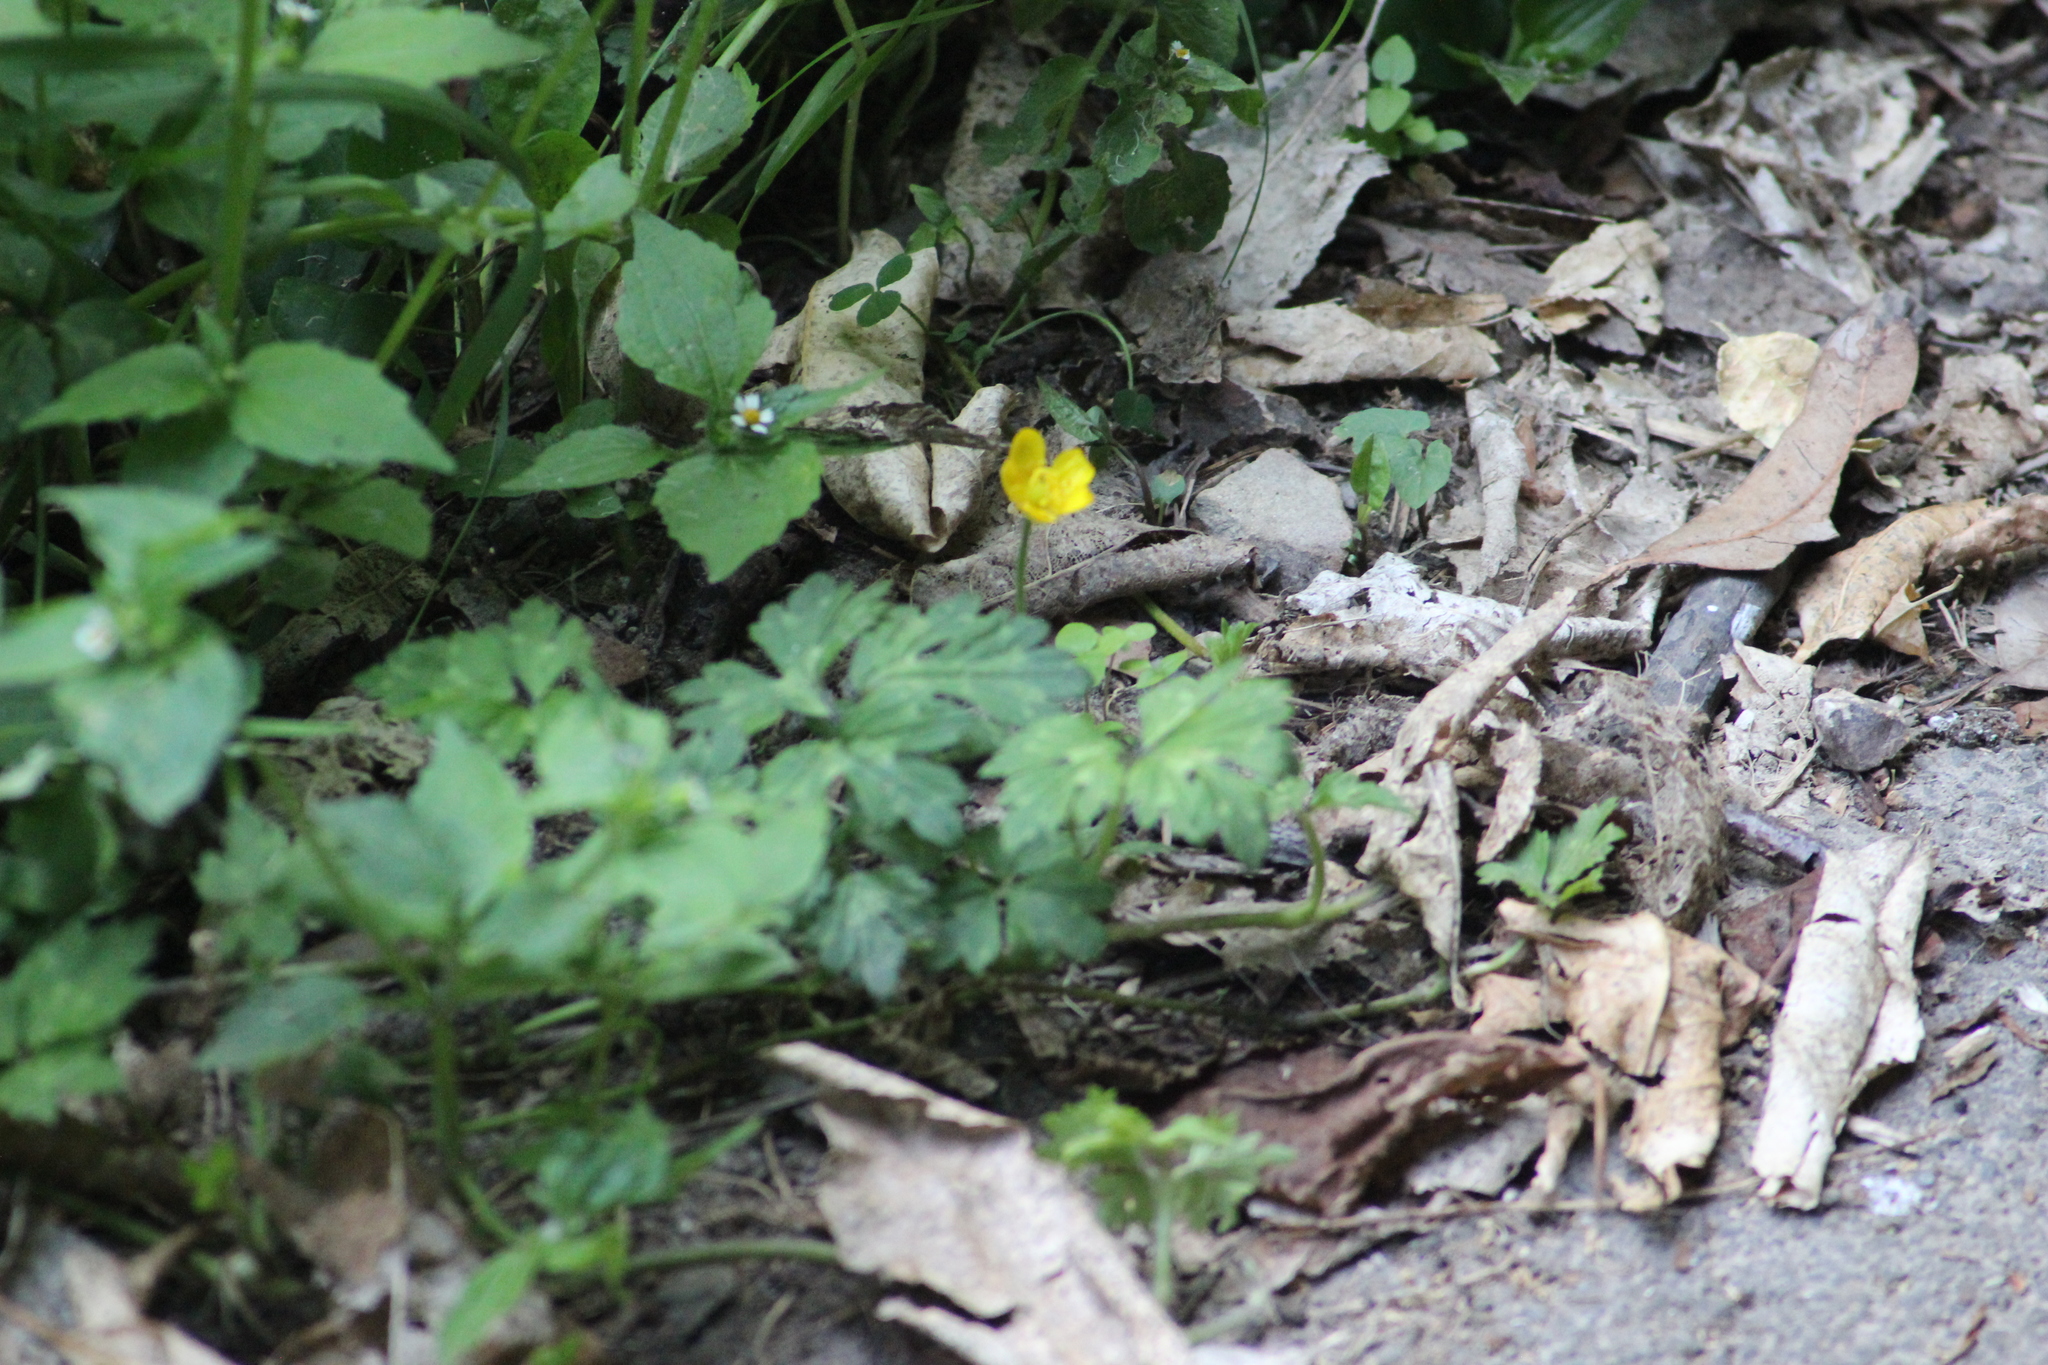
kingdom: Plantae
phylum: Tracheophyta
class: Magnoliopsida
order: Ranunculales
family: Ranunculaceae
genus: Ranunculus
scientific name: Ranunculus repens
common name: Creeping buttercup
